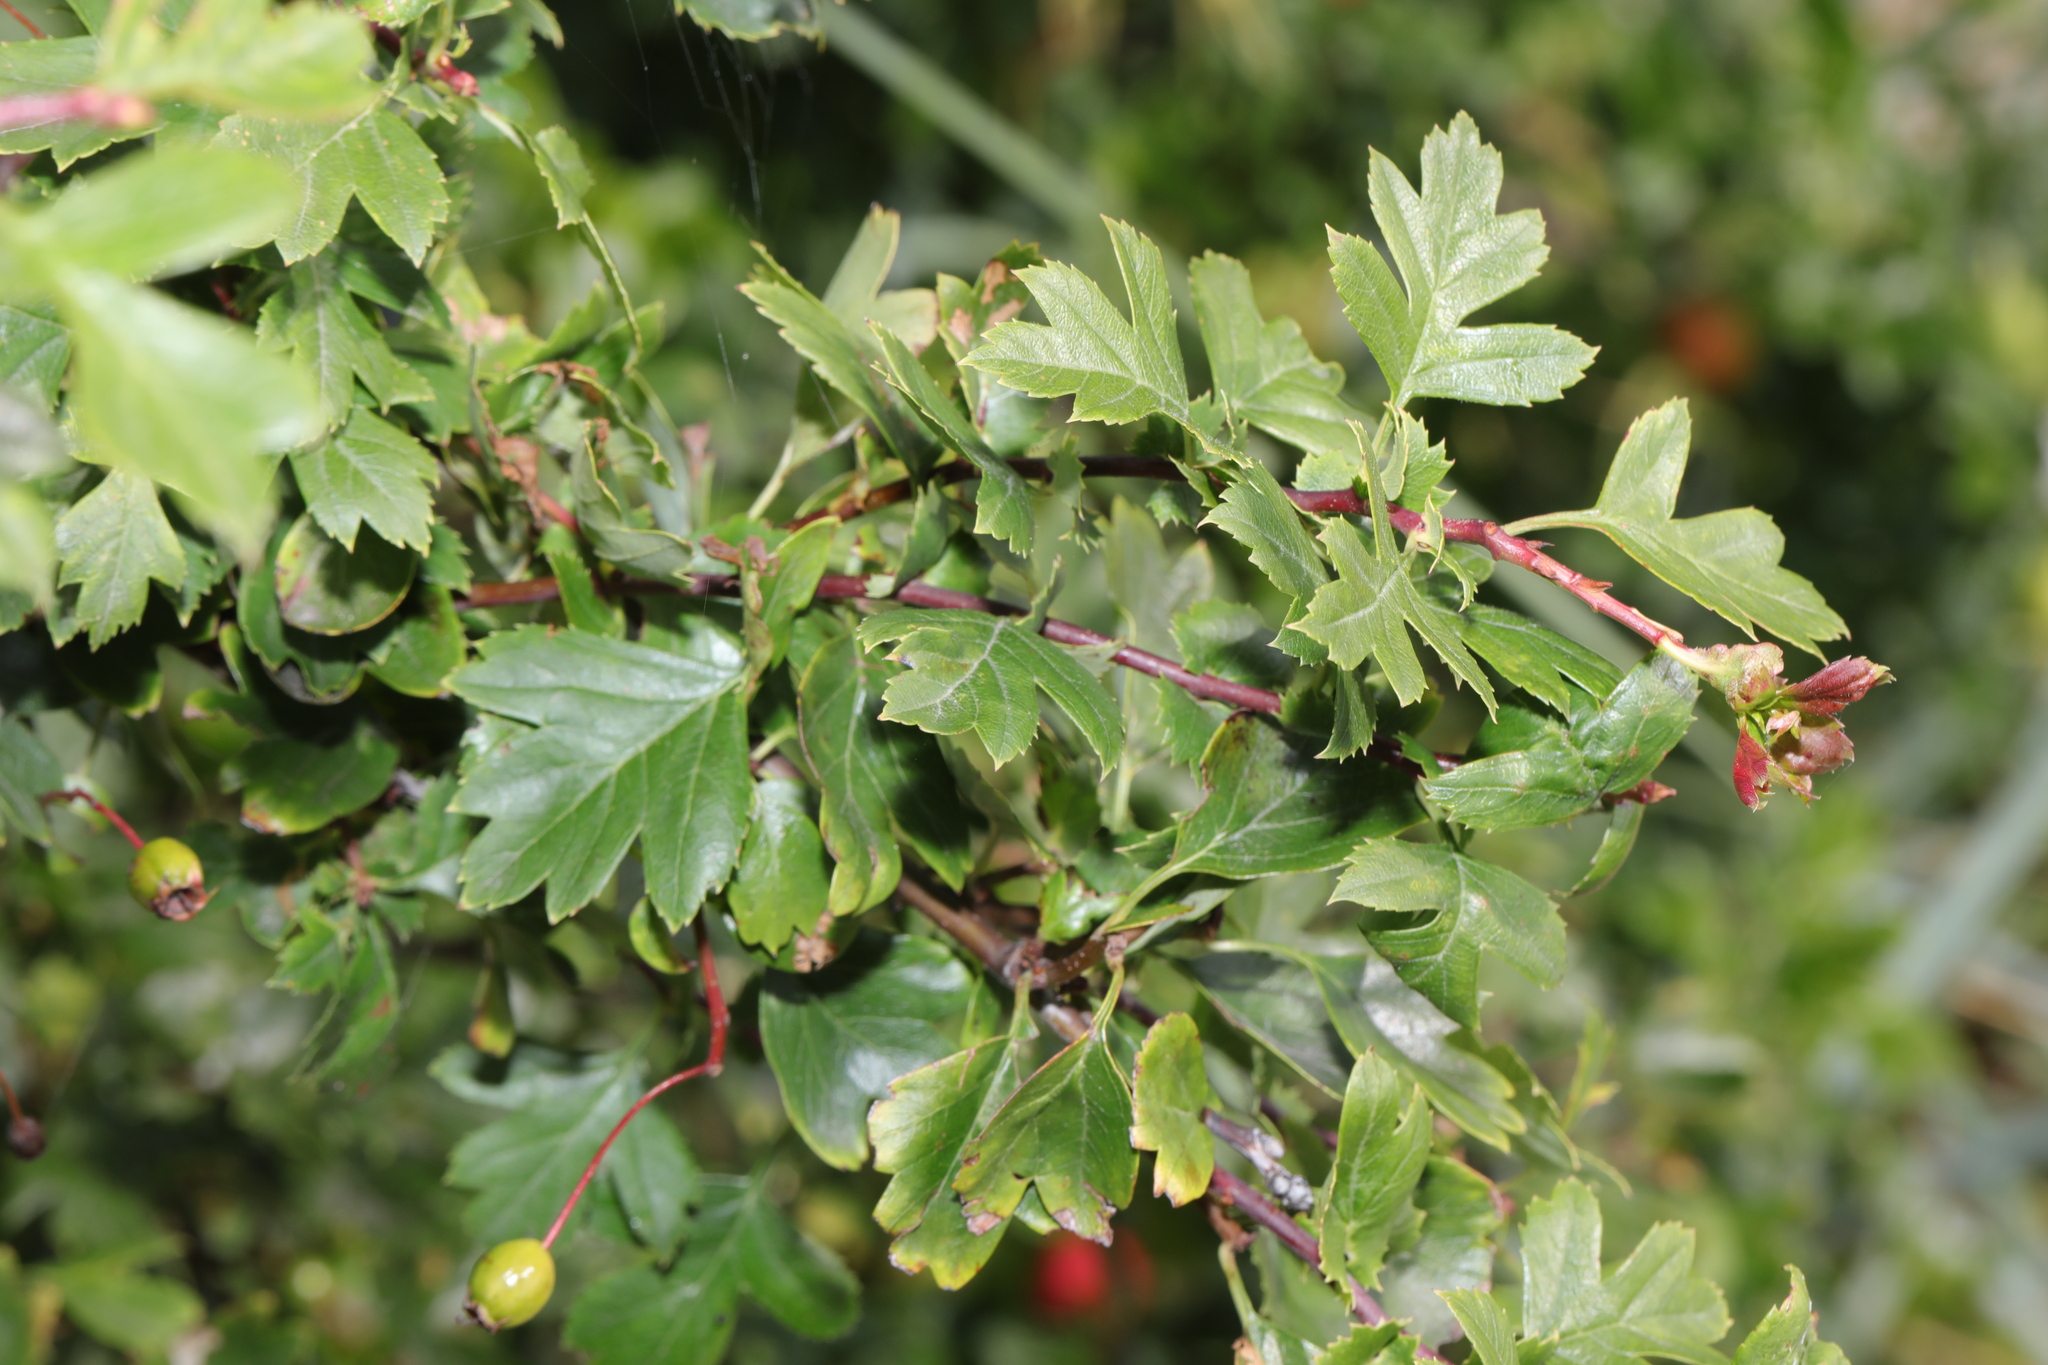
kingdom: Plantae
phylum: Tracheophyta
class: Magnoliopsida
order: Rosales
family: Rosaceae
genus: Crataegus
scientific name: Crataegus monogyna
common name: Hawthorn
